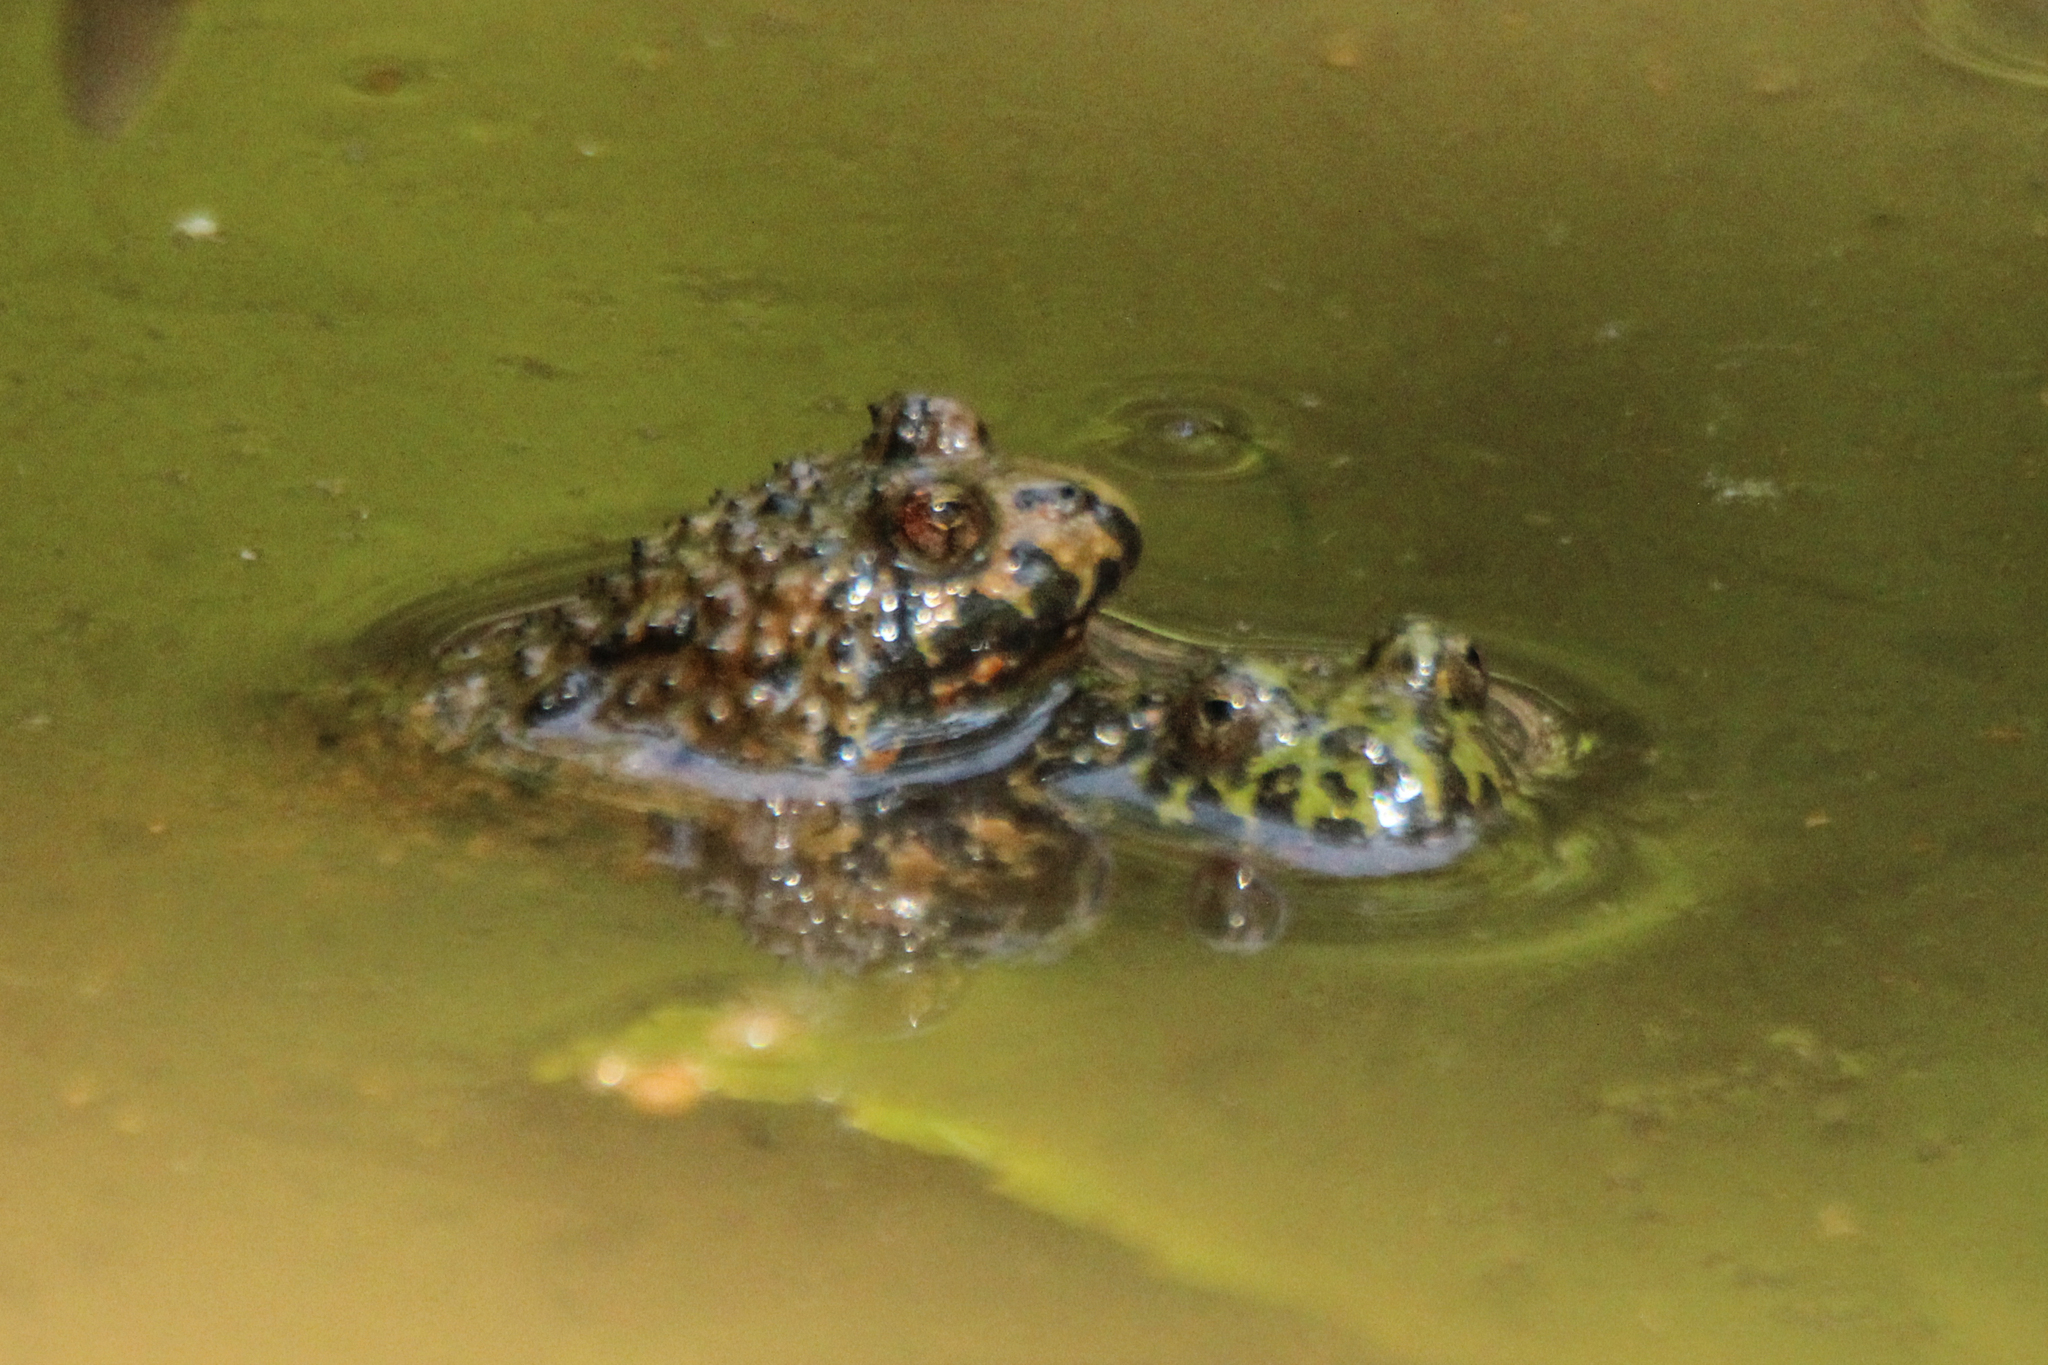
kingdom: Animalia
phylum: Chordata
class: Amphibia
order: Anura
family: Bombinatoridae
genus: Bombina
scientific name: Bombina orientalis
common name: Oriental firebelly toad
